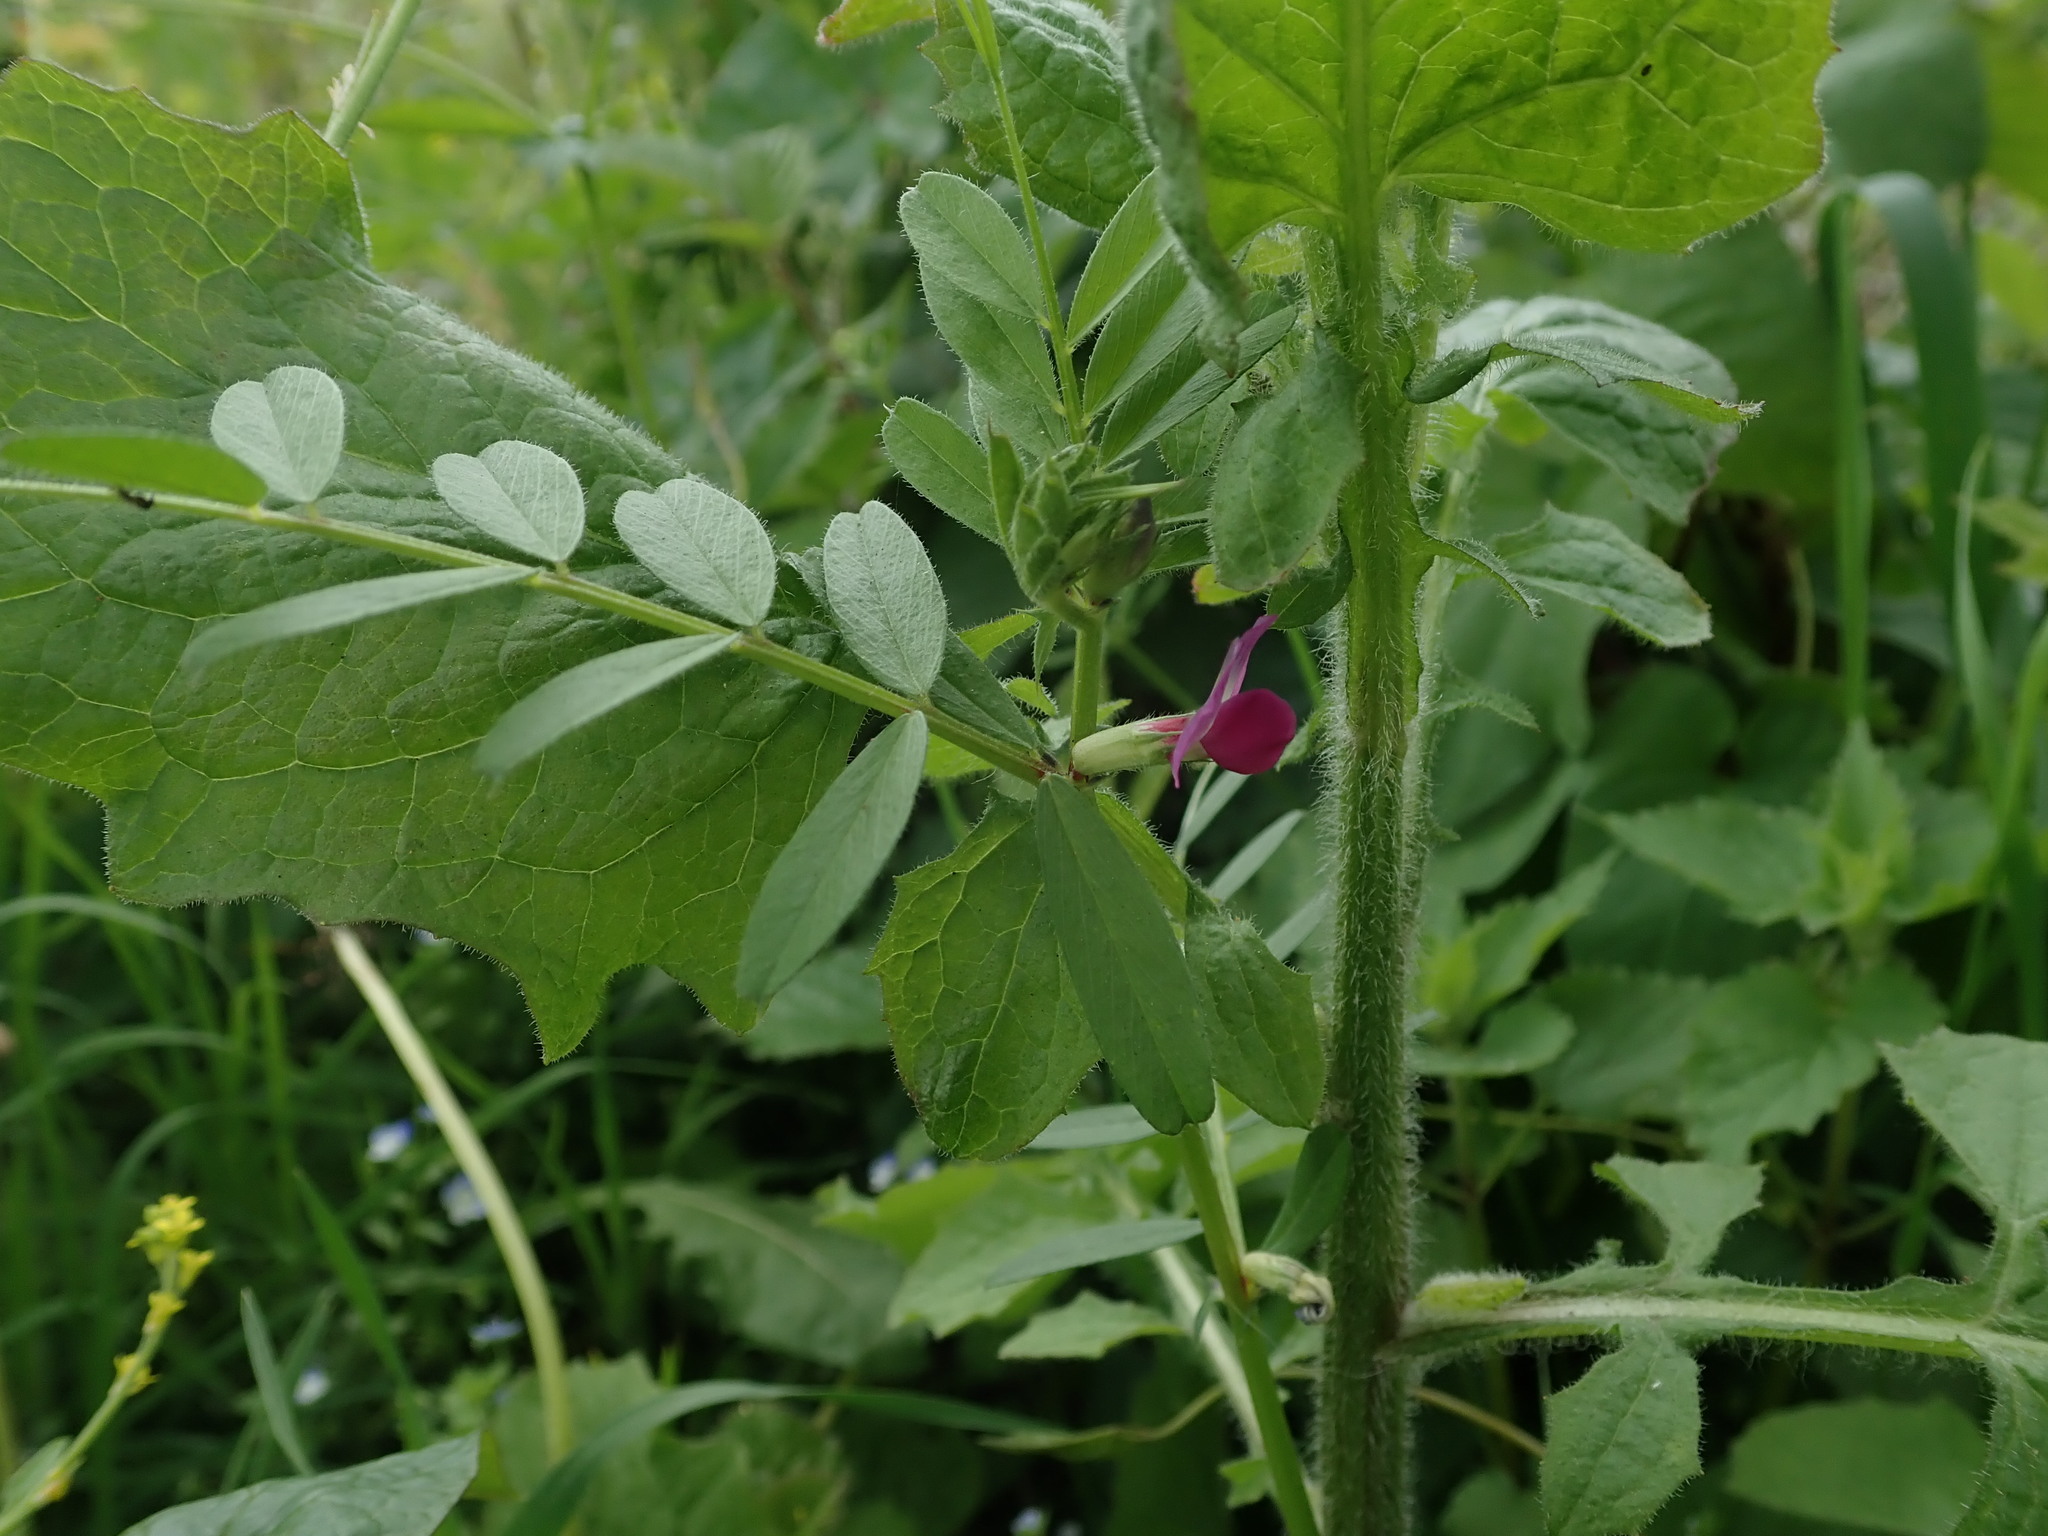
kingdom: Plantae
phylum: Tracheophyta
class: Magnoliopsida
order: Fabales
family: Fabaceae
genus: Vicia
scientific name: Vicia sativa
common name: Garden vetch
